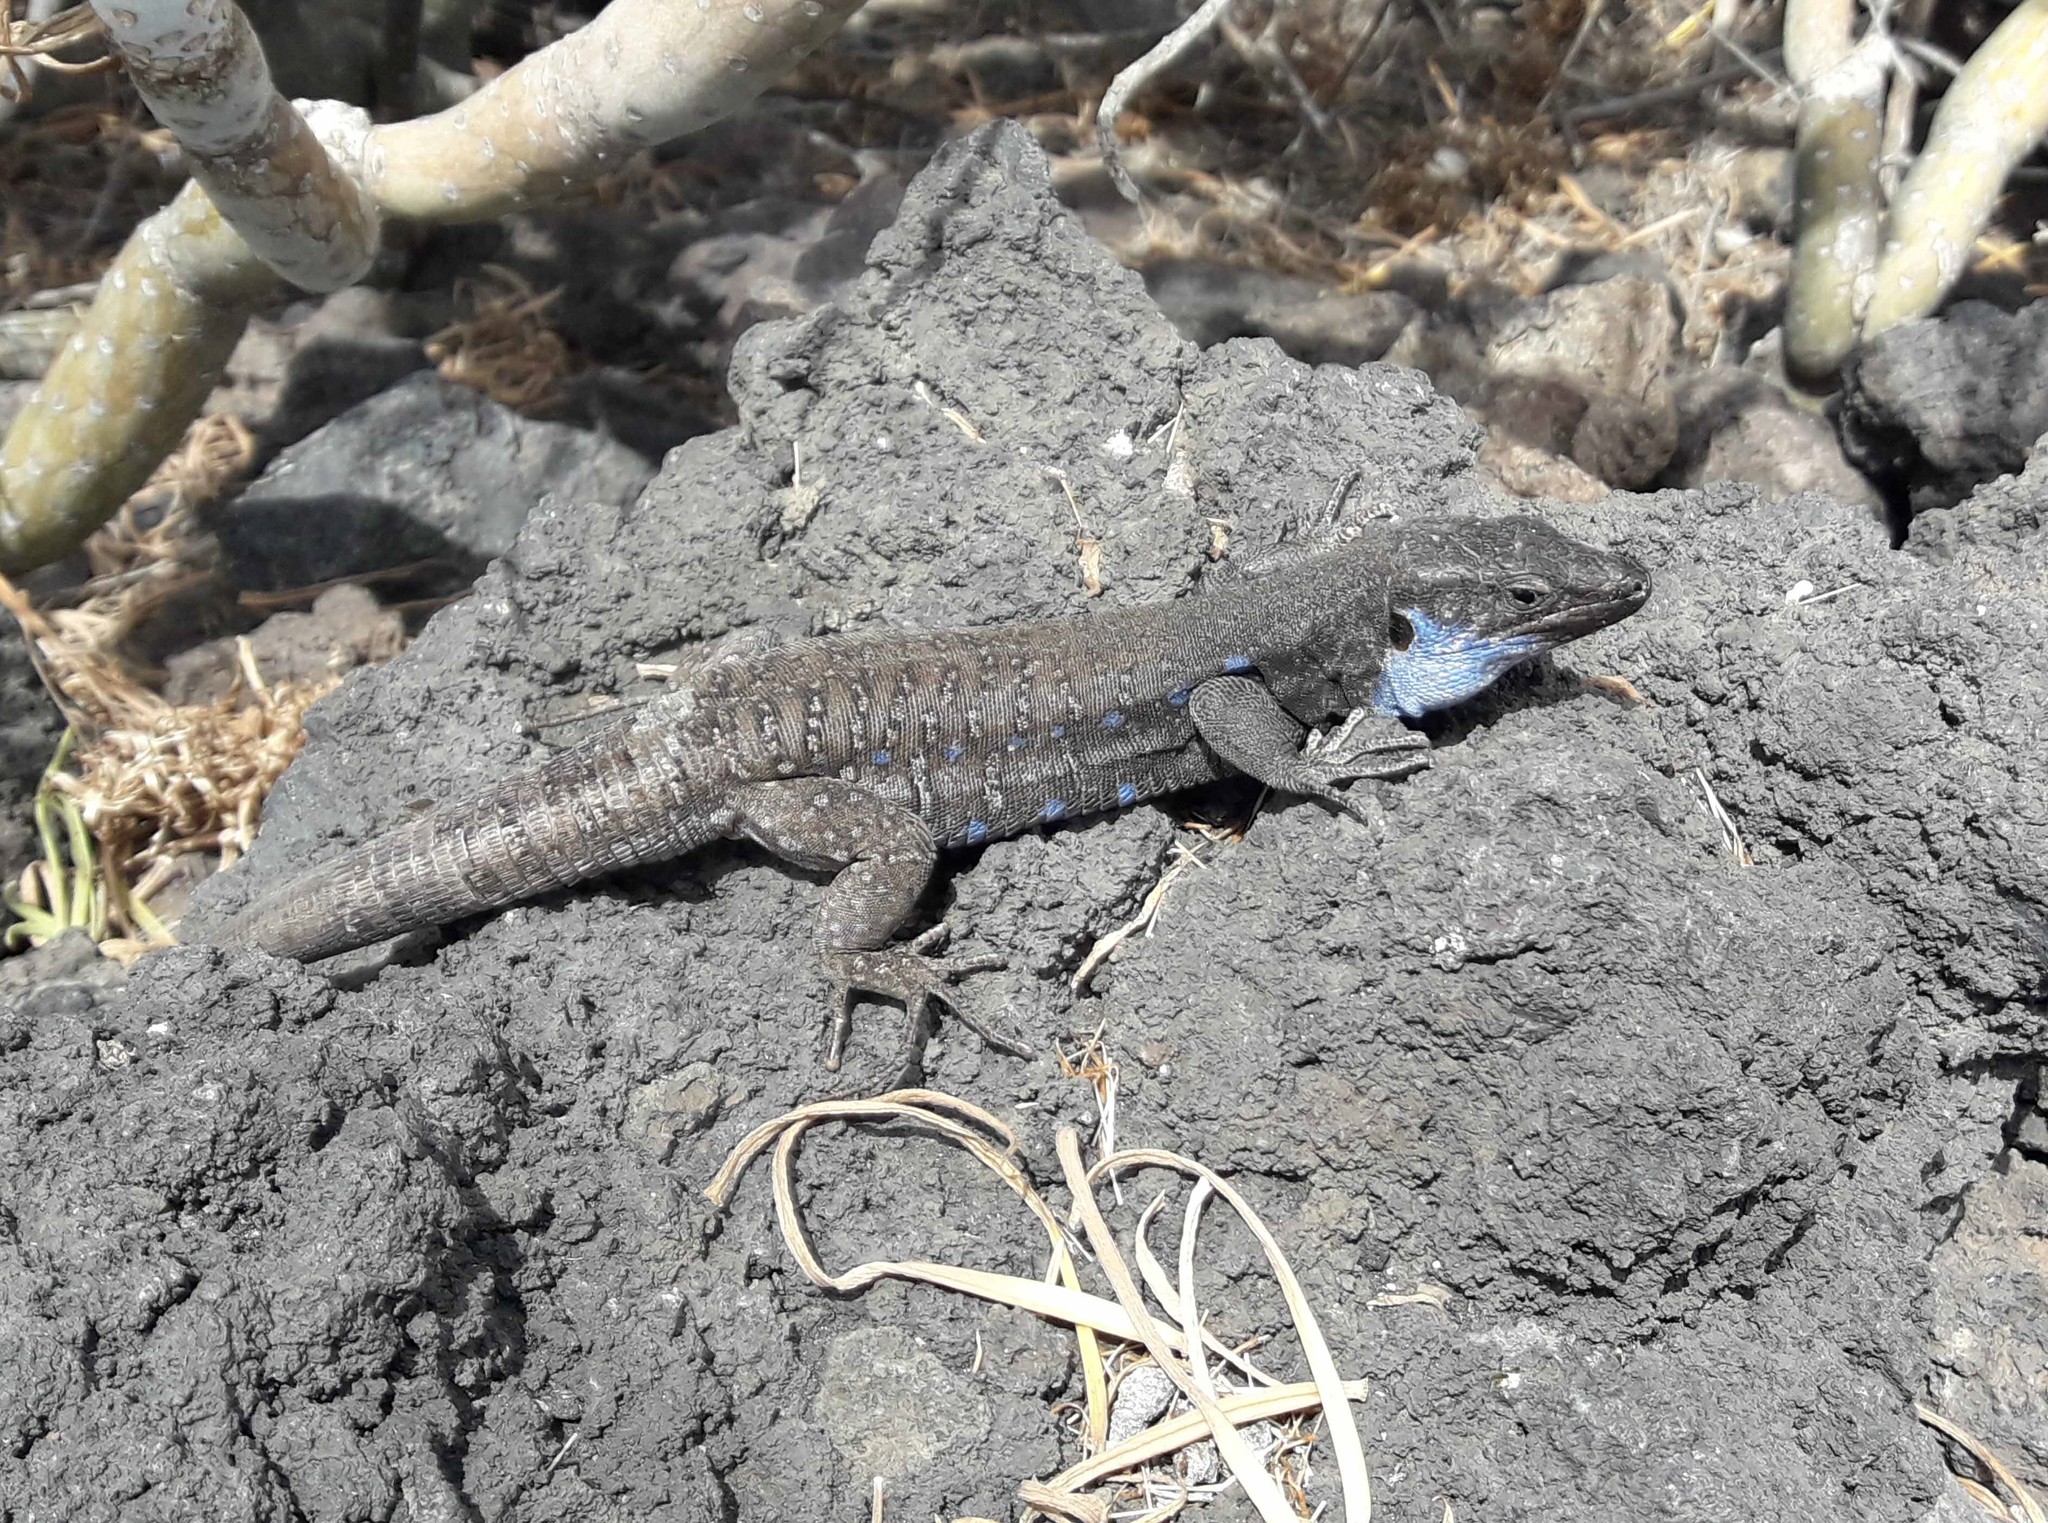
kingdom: Animalia
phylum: Chordata
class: Squamata
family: Lacertidae
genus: Gallotia
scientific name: Gallotia galloti
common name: Gallot's lizard
